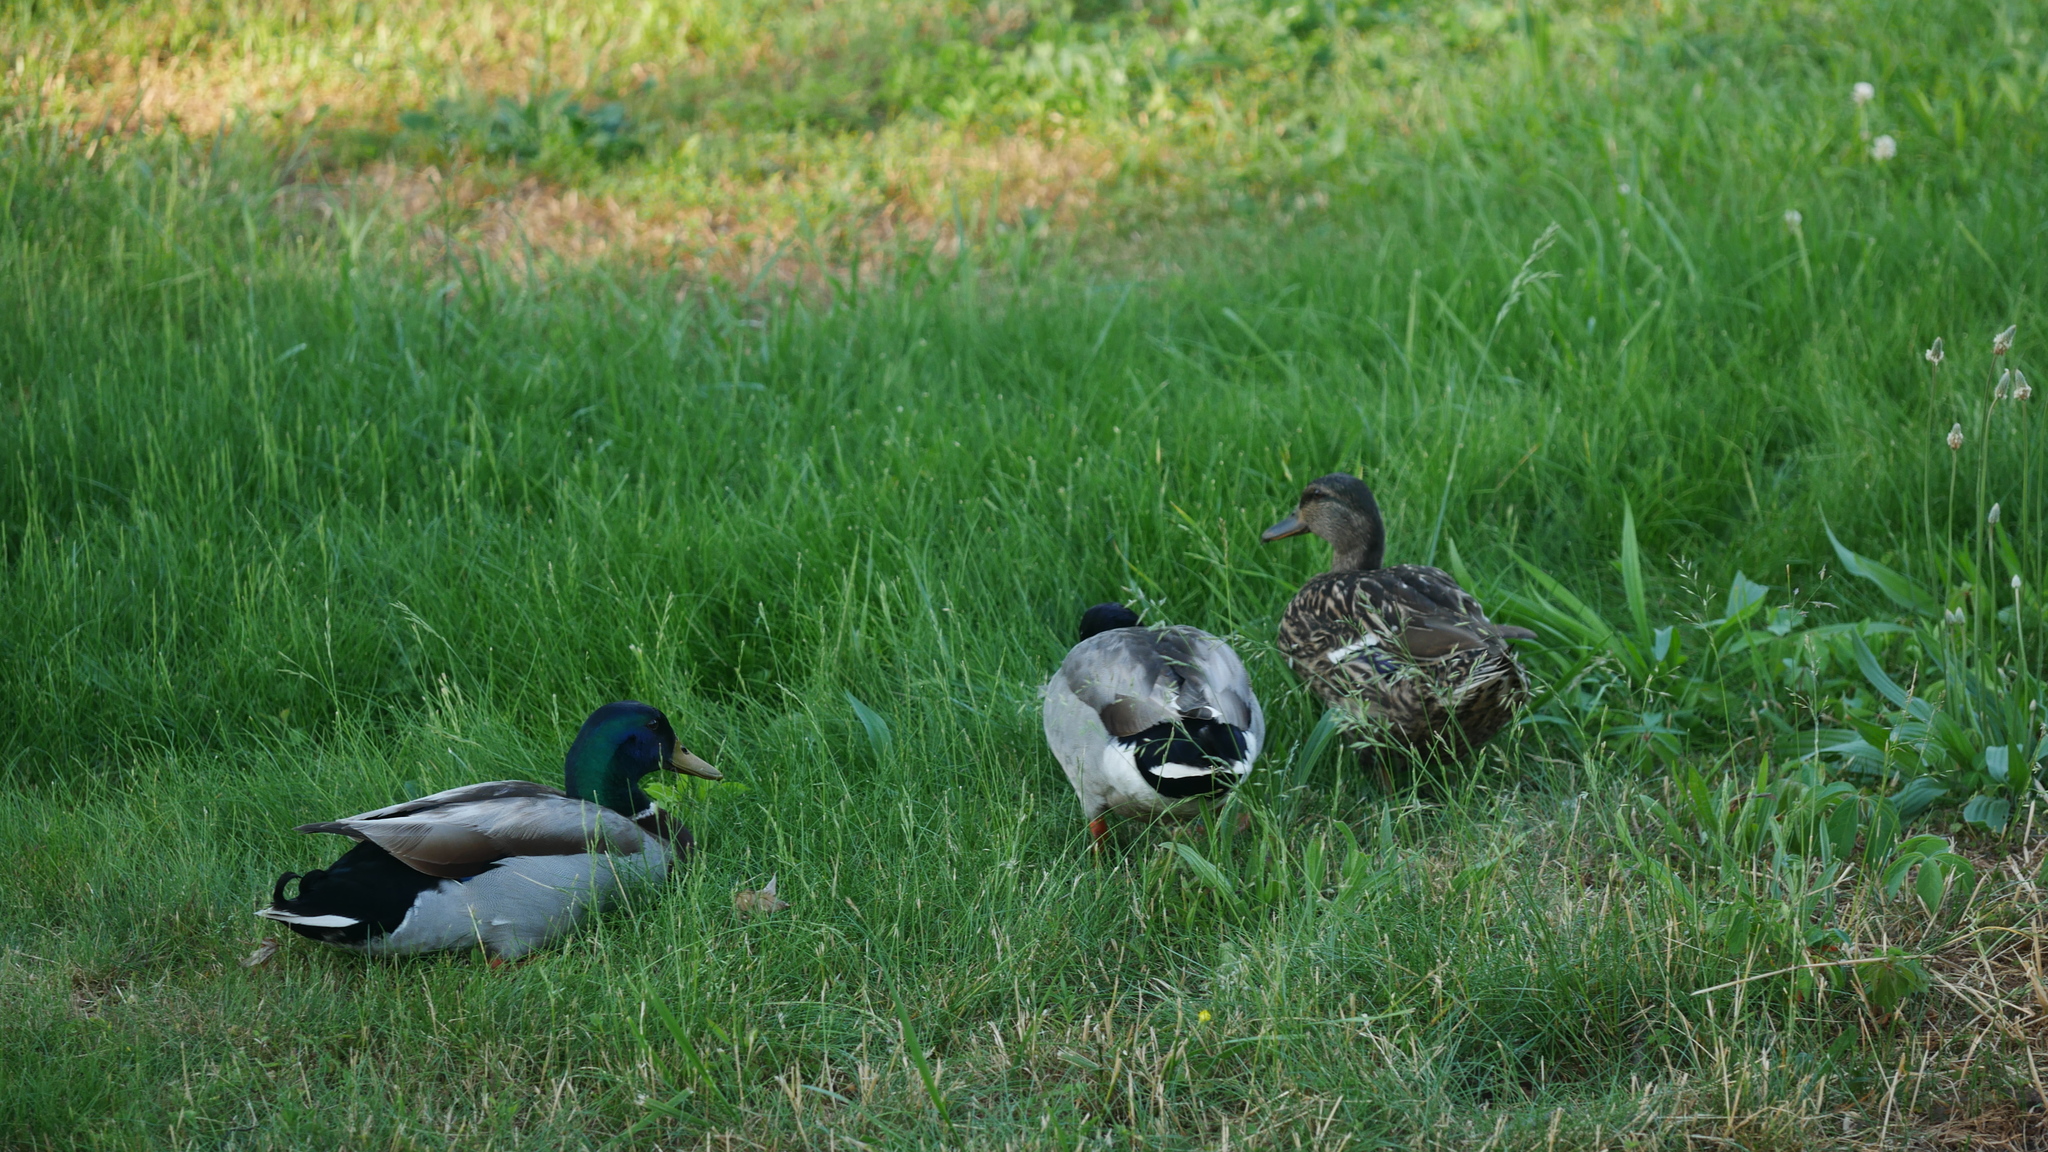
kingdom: Animalia
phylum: Chordata
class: Aves
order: Anseriformes
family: Anatidae
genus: Anas
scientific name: Anas platyrhynchos
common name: Mallard
